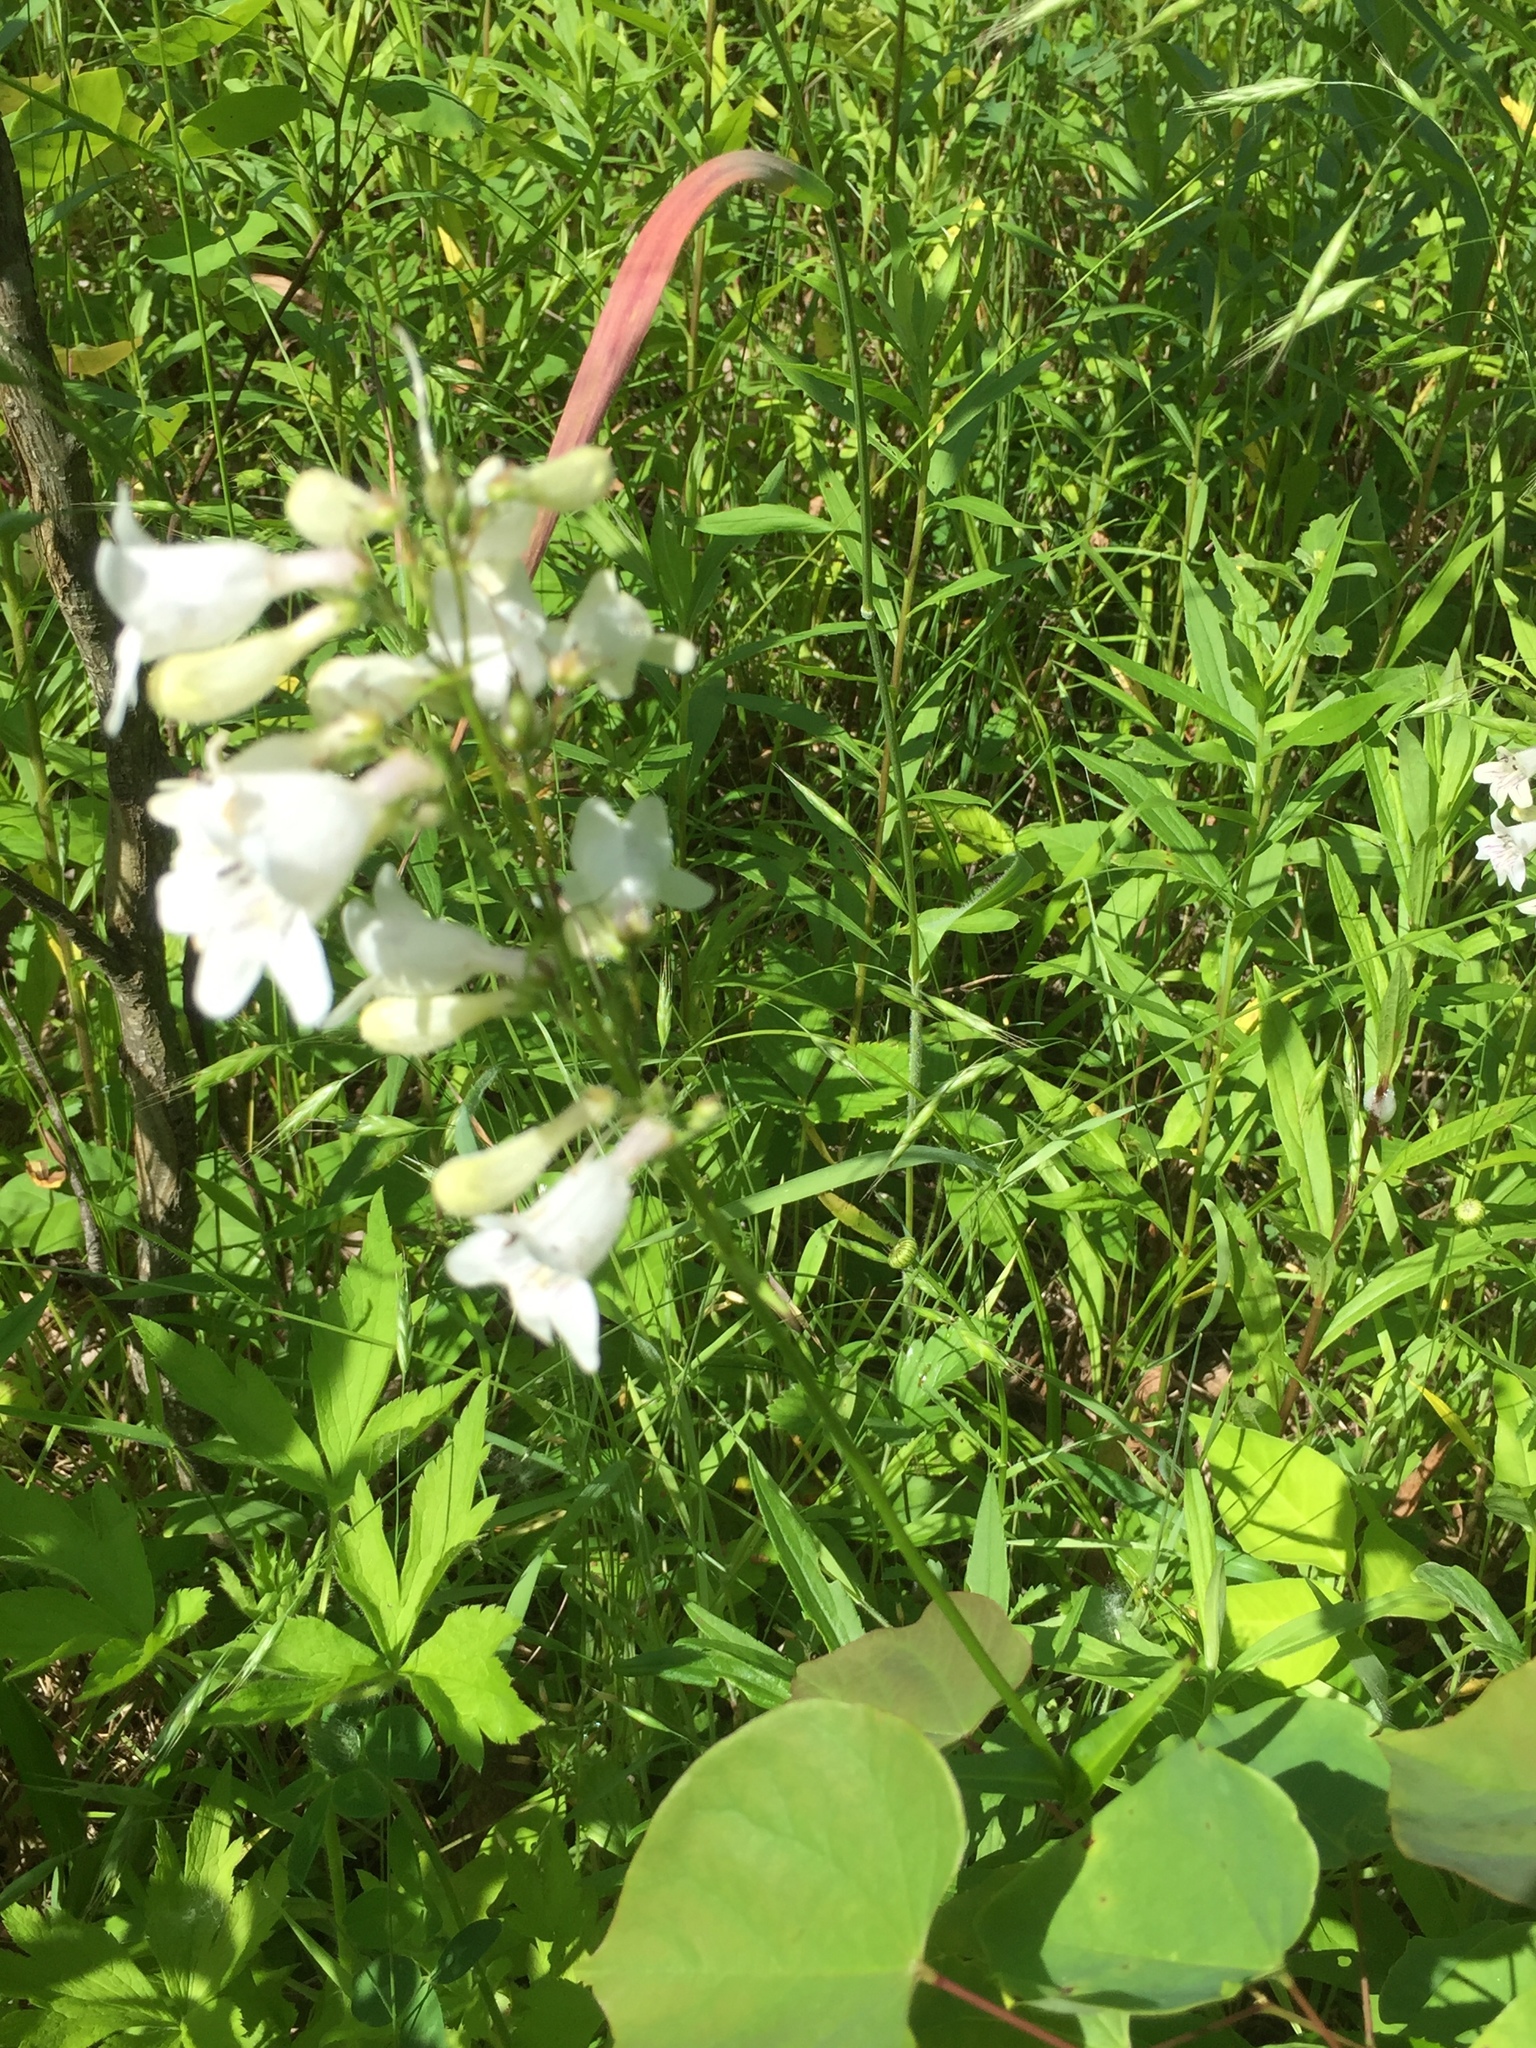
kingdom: Plantae
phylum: Tracheophyta
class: Magnoliopsida
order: Lamiales
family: Plantaginaceae
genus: Penstemon
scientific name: Penstemon digitalis
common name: Foxglove beardtongue
